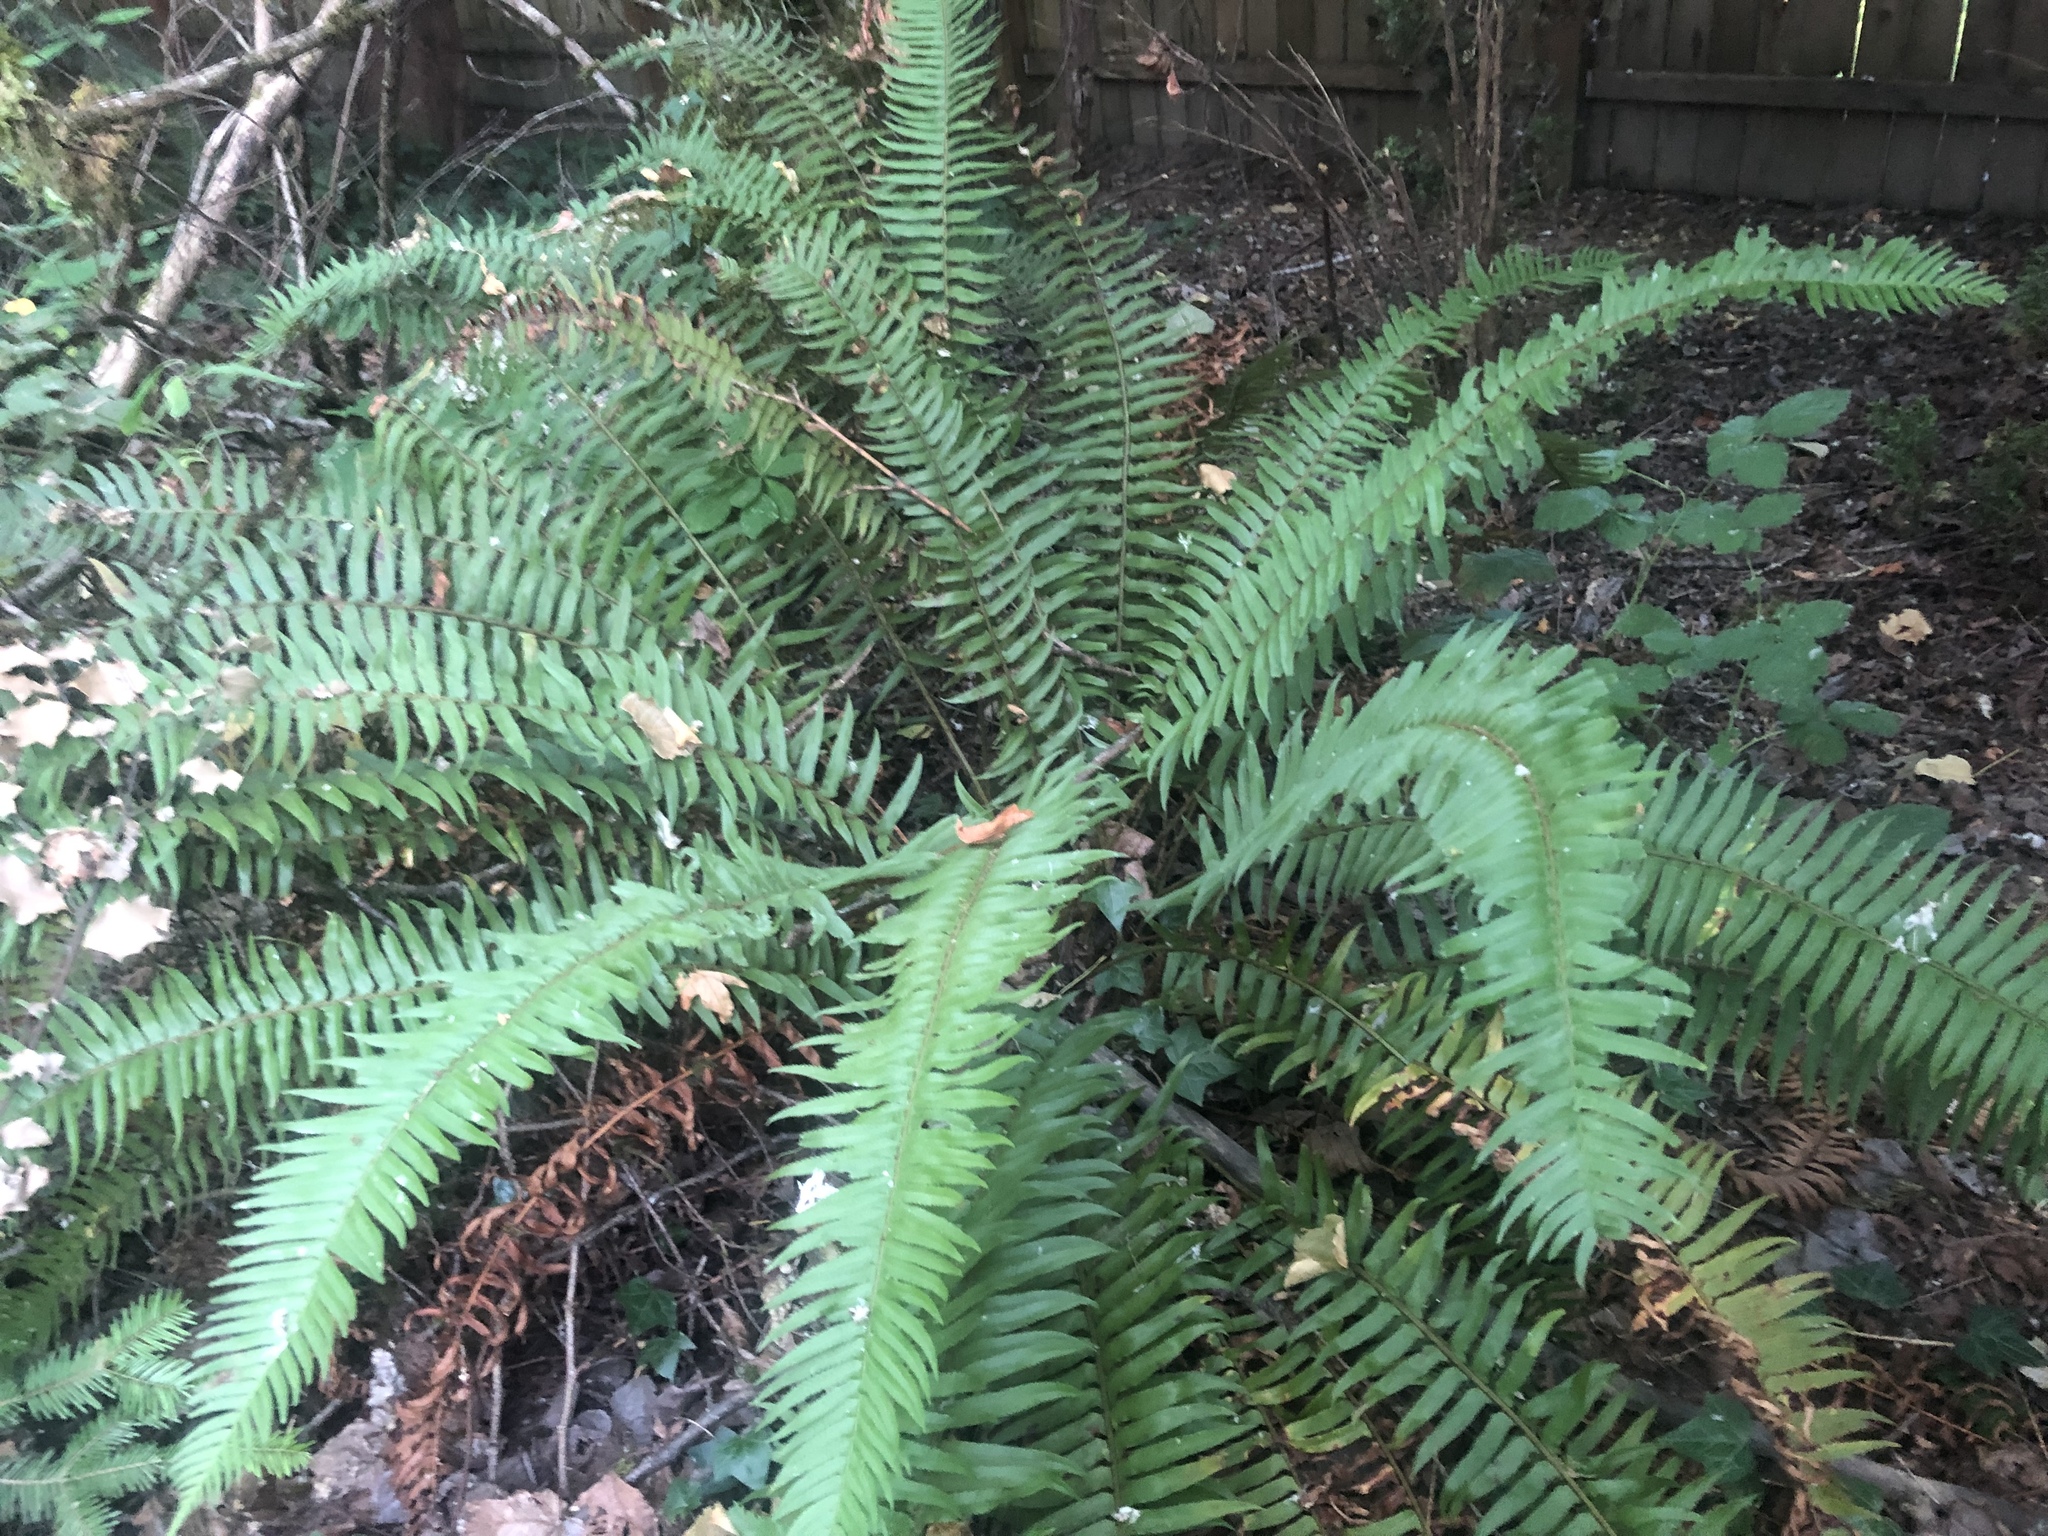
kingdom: Plantae
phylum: Tracheophyta
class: Polypodiopsida
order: Polypodiales
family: Dryopteridaceae
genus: Polystichum
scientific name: Polystichum munitum
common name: Western sword-fern
